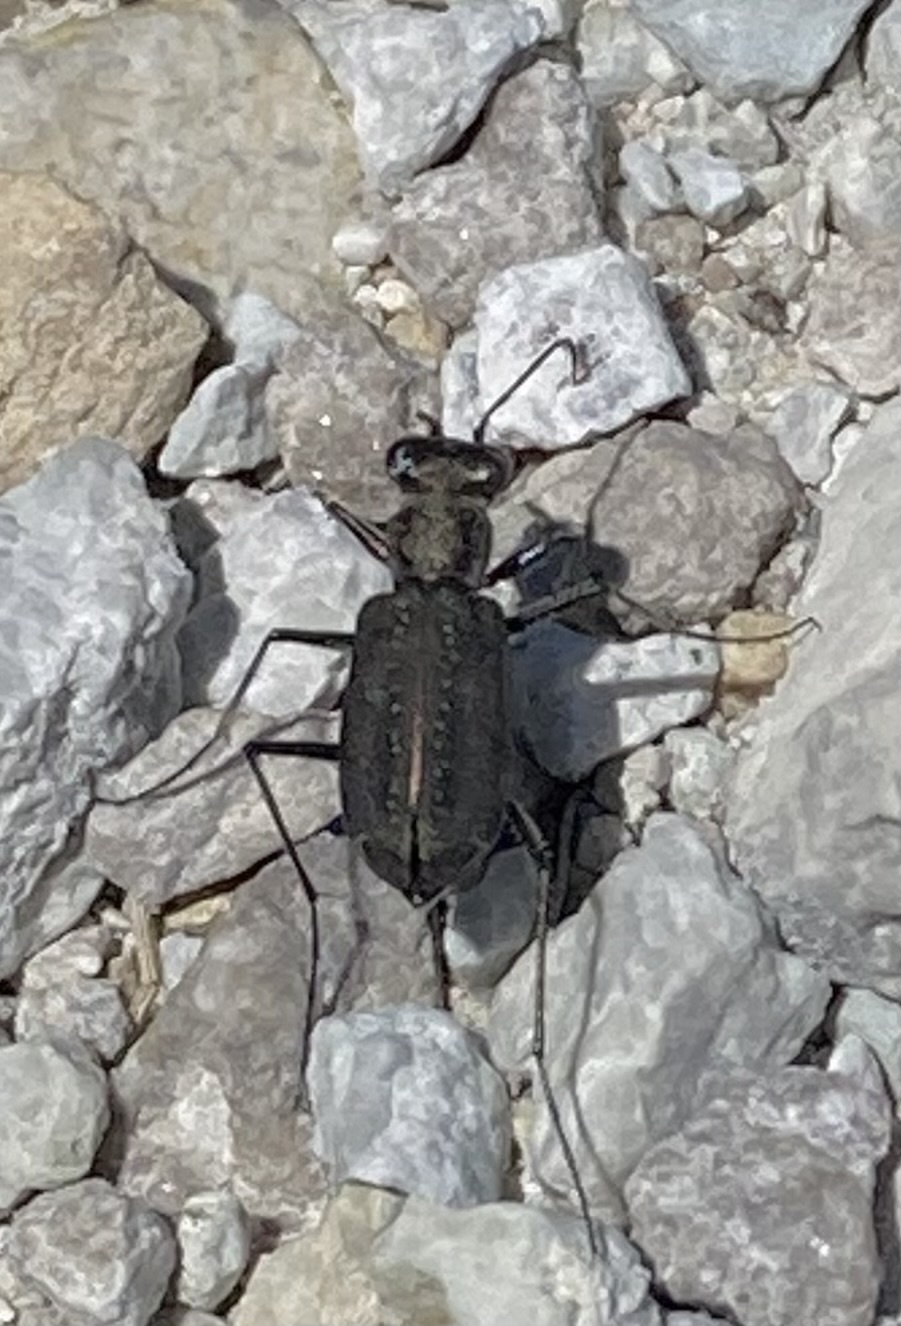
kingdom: Animalia
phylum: Arthropoda
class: Insecta
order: Coleoptera
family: Carabidae
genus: Cicindela
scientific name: Cicindela punctulata
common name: Punctured tiger beetle
